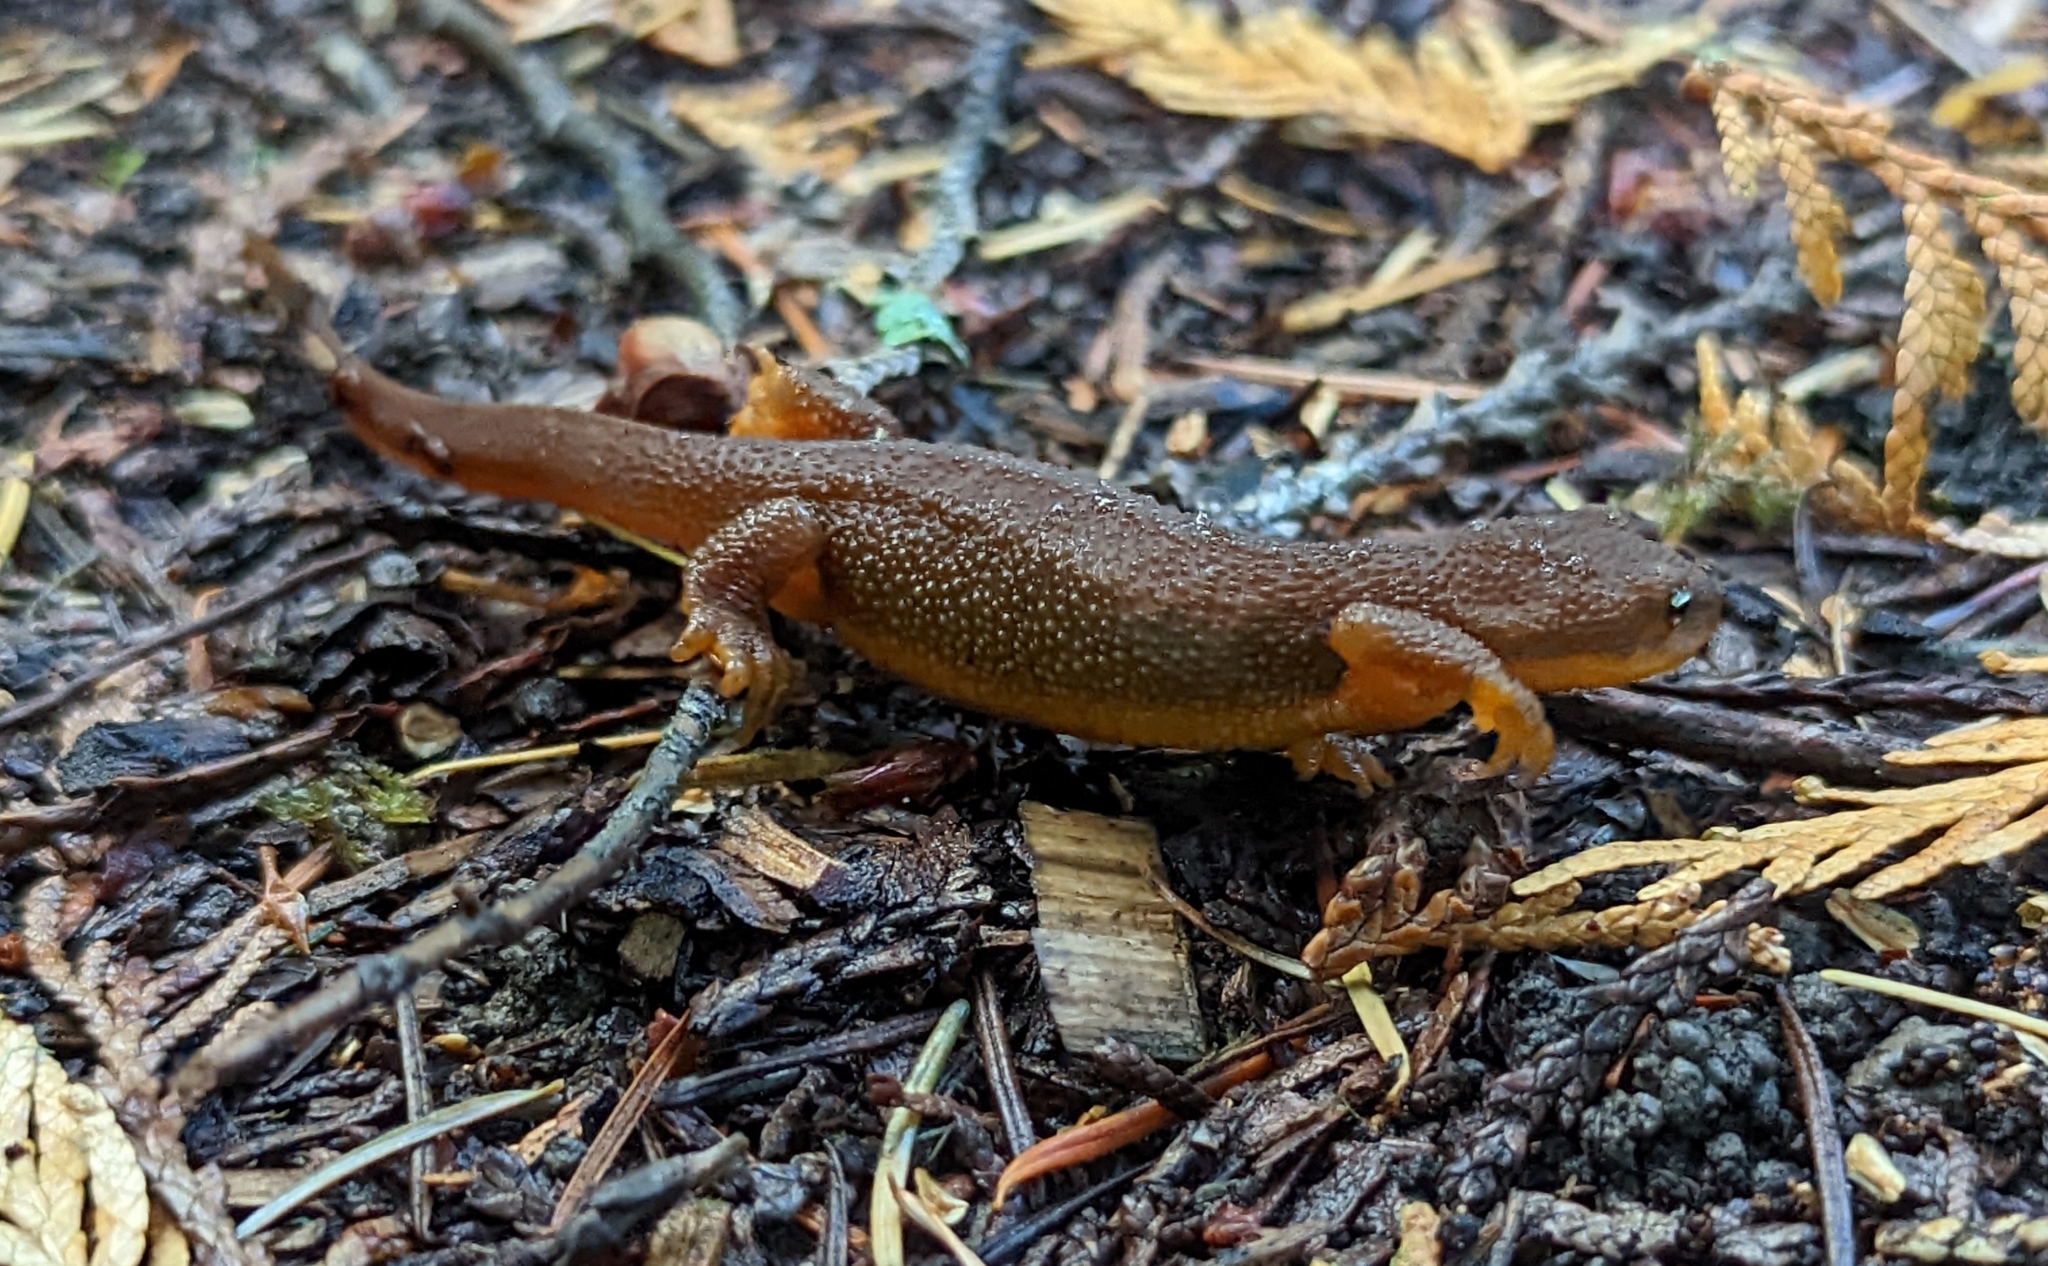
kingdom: Animalia
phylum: Chordata
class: Amphibia
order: Caudata
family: Salamandridae
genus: Taricha
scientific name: Taricha granulosa
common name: Roughskin newt
